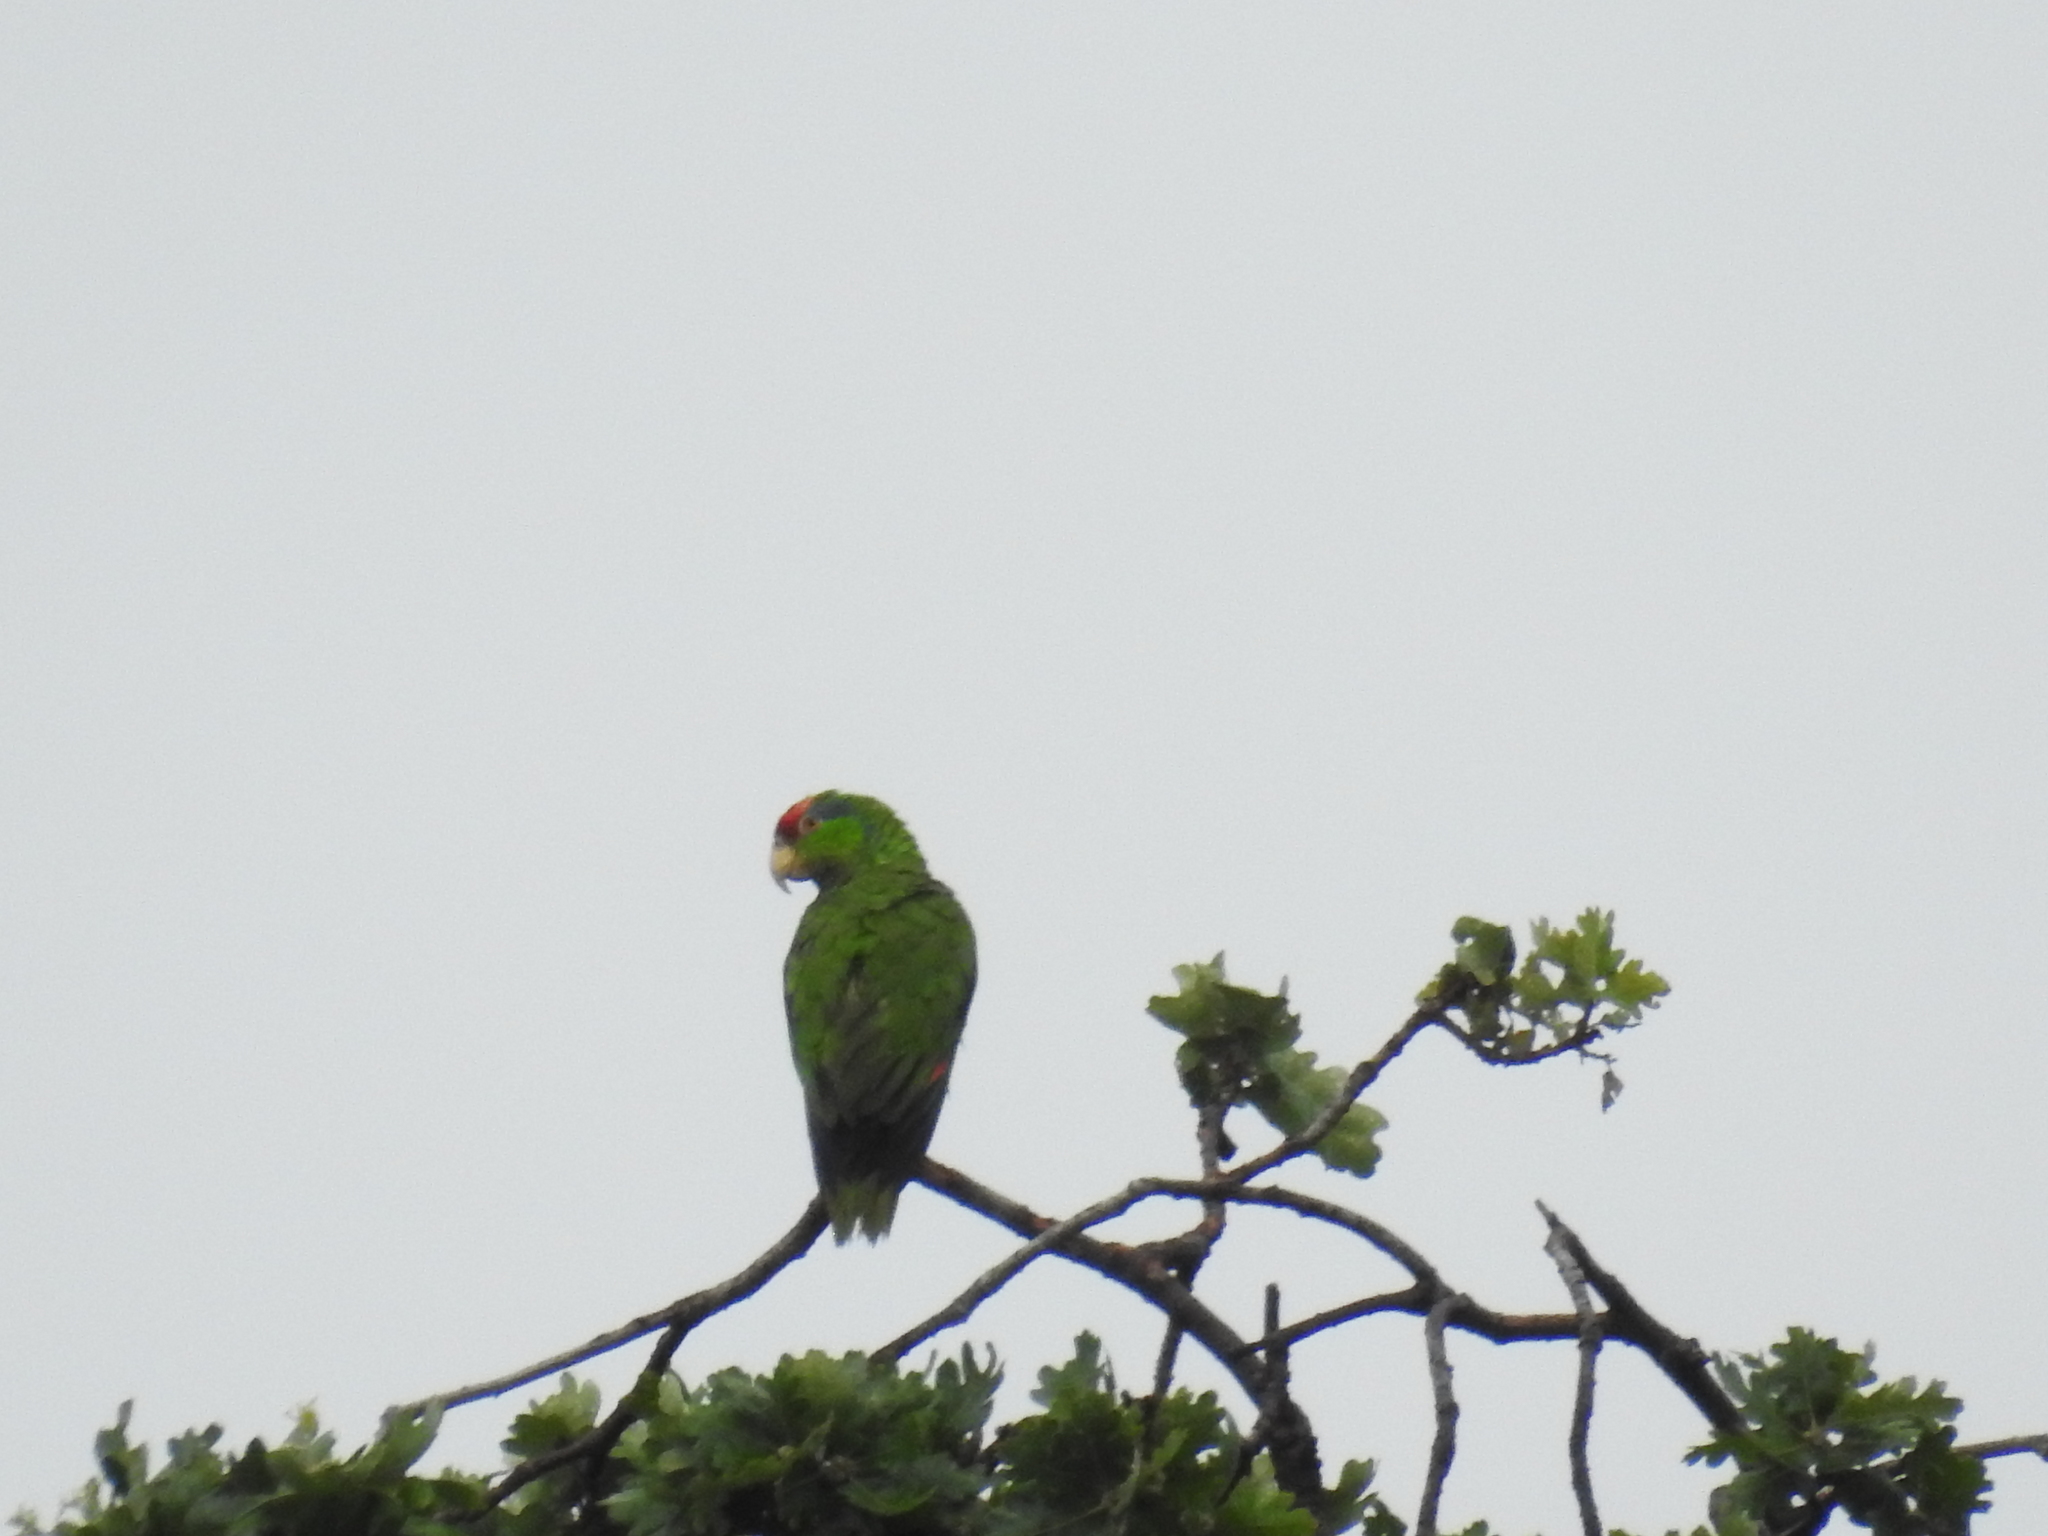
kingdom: Animalia
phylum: Chordata
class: Aves
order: Psittaciformes
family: Psittacidae
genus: Amazona
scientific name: Amazona viridigenalis
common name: Red-crowned amazon
